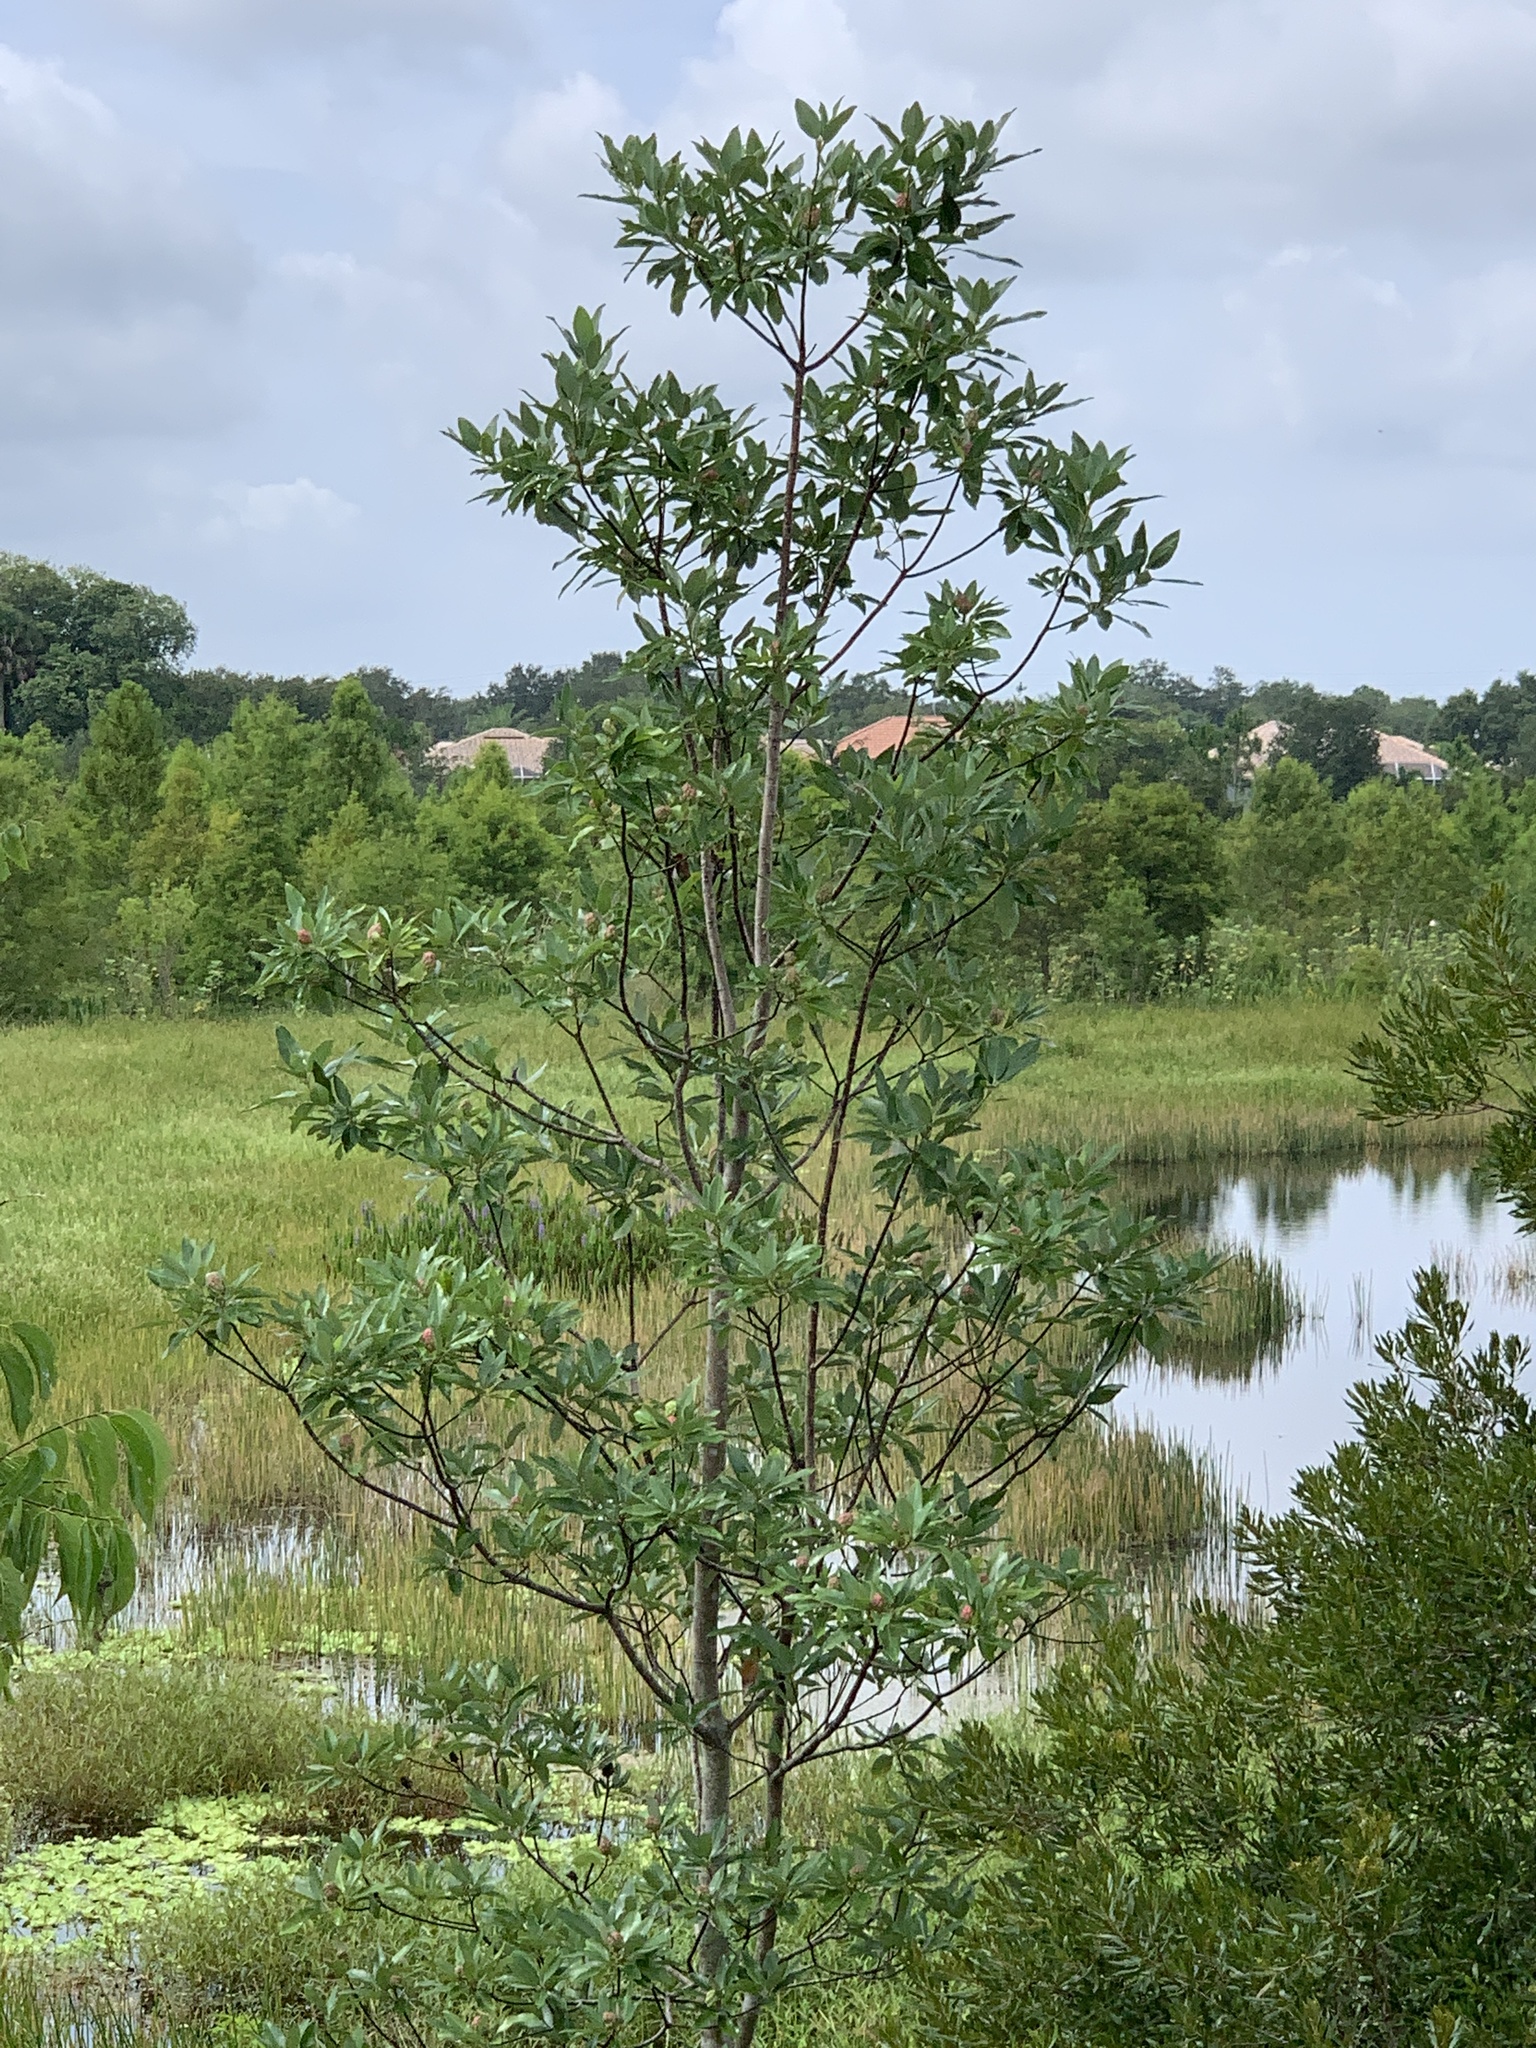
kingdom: Plantae
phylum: Tracheophyta
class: Magnoliopsida
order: Magnoliales
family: Magnoliaceae
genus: Magnolia
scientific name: Magnolia virginiana
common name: Swamp bay
